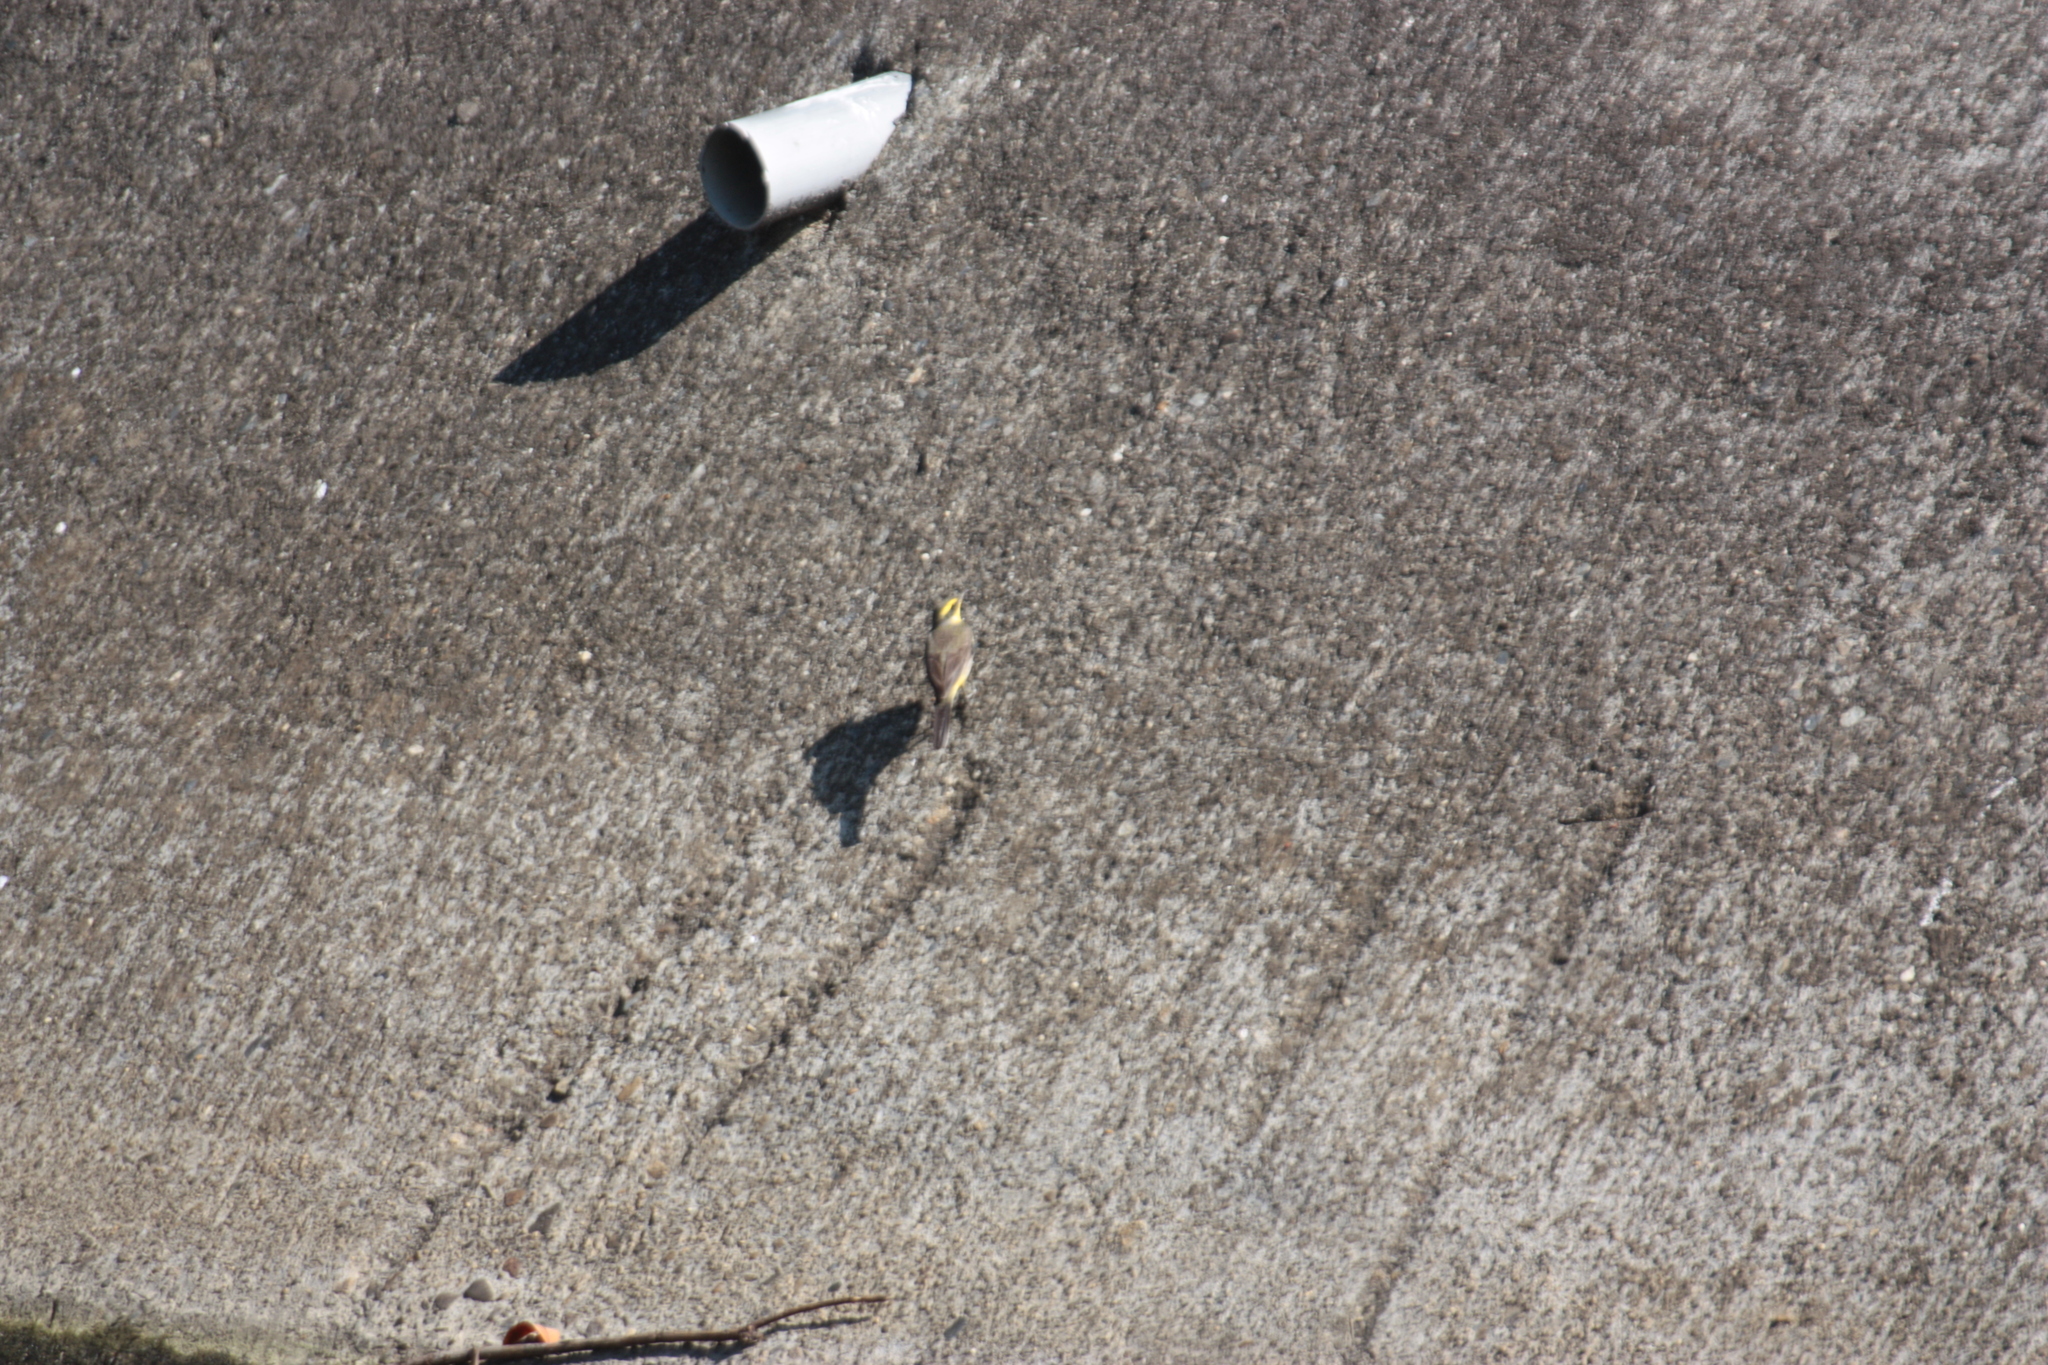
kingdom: Animalia
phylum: Chordata
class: Aves
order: Passeriformes
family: Motacillidae
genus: Motacilla
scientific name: Motacilla tschutschensis
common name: Eastern yellow wagtail
